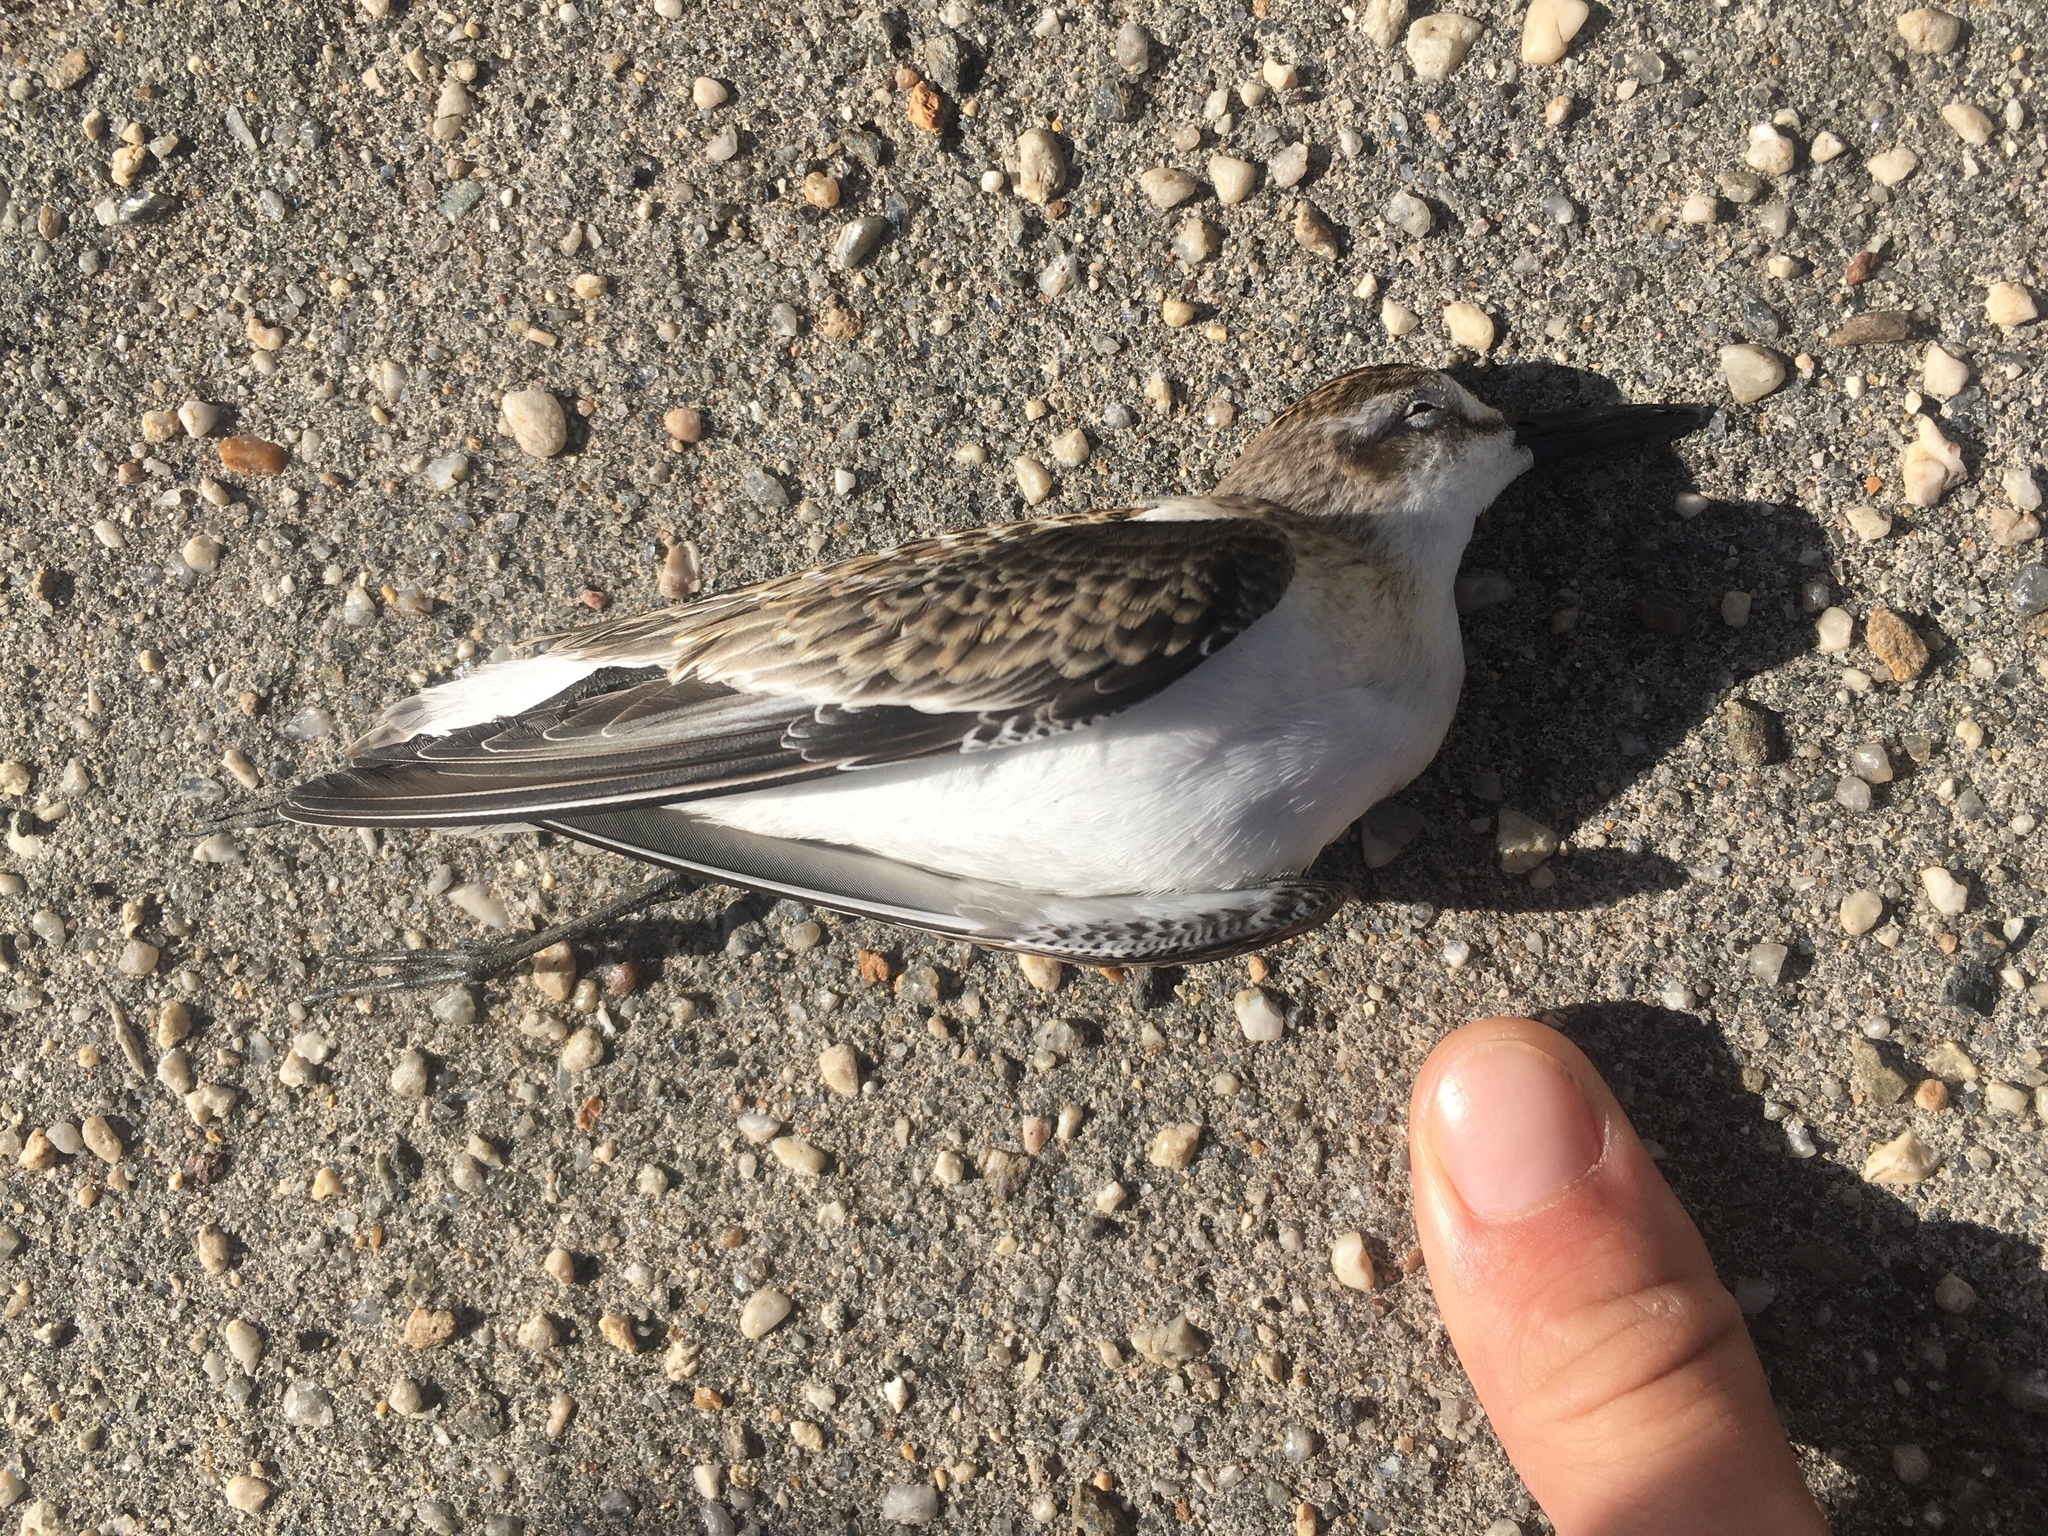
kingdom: Animalia
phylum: Chordata
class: Aves
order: Charadriiformes
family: Scolopacidae
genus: Calidris
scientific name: Calidris pusilla
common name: Semipalmated sandpiper
